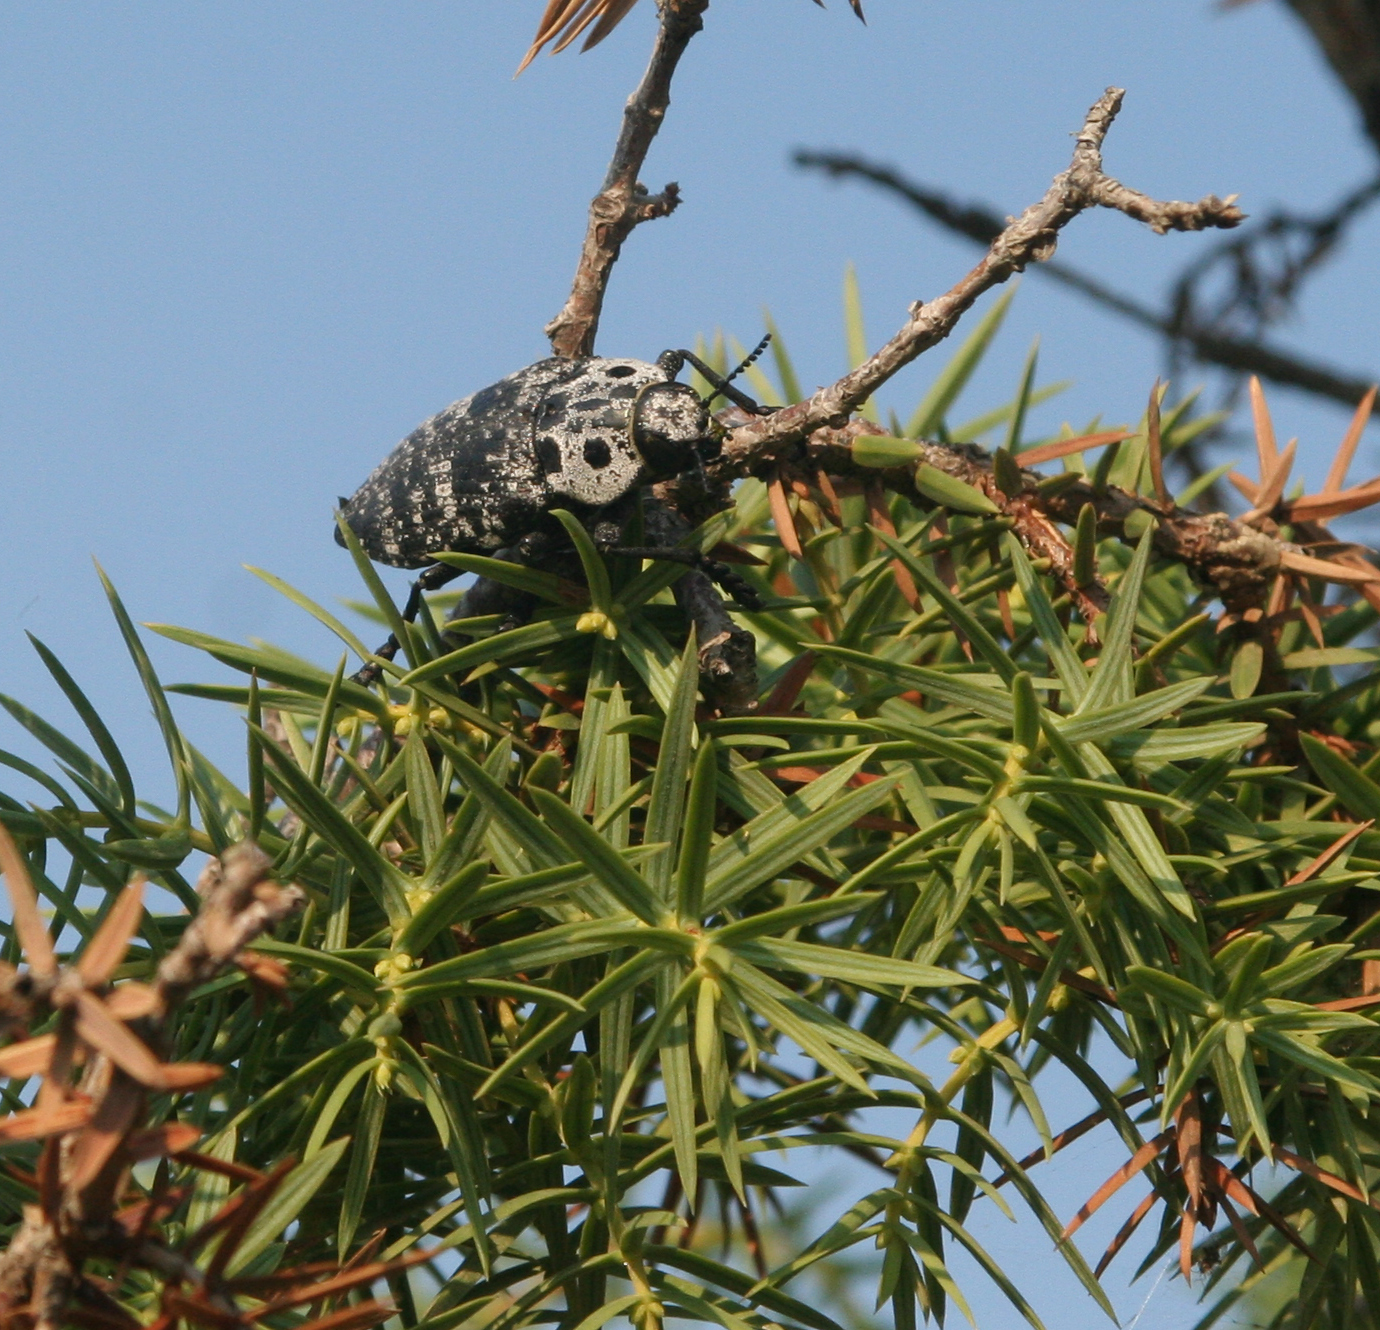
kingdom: Animalia
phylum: Arthropoda
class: Insecta
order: Coleoptera
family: Buprestidae
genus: Capnodis
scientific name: Capnodis cariosa
